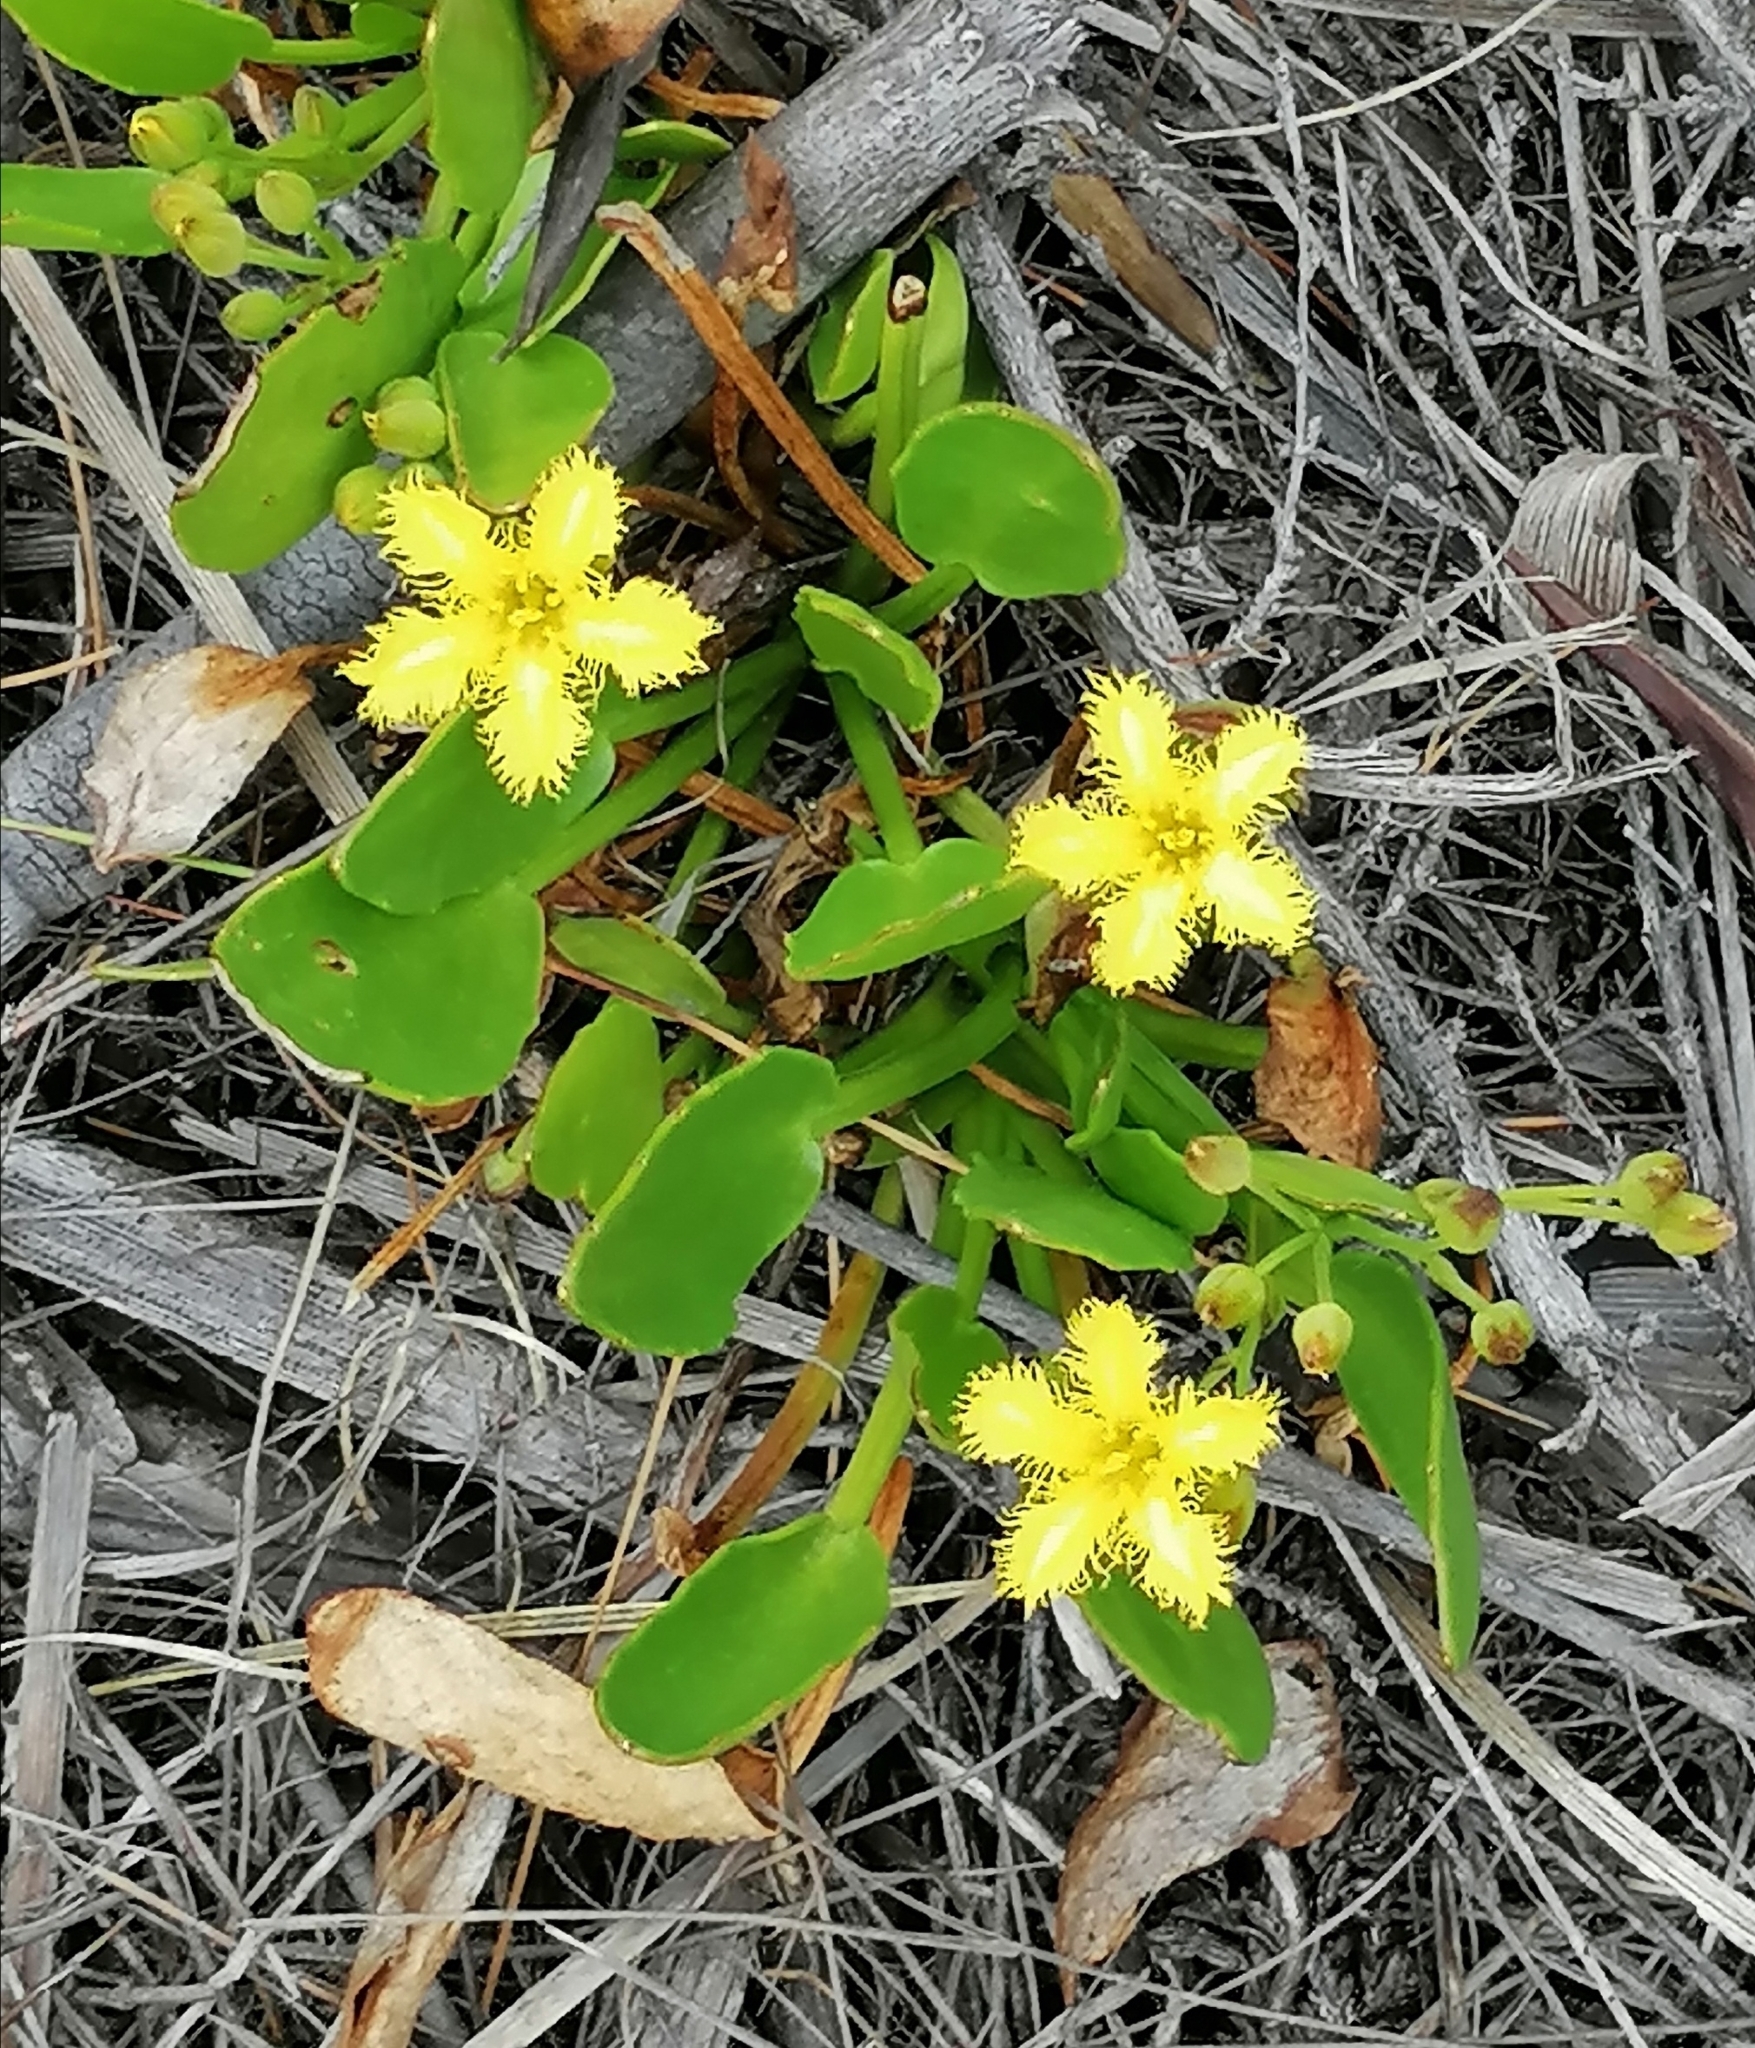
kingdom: Plantae
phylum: Tracheophyta
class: Magnoliopsida
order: Asterales
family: Menyanthaceae
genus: Villarsia
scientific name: Villarsia manningiana
